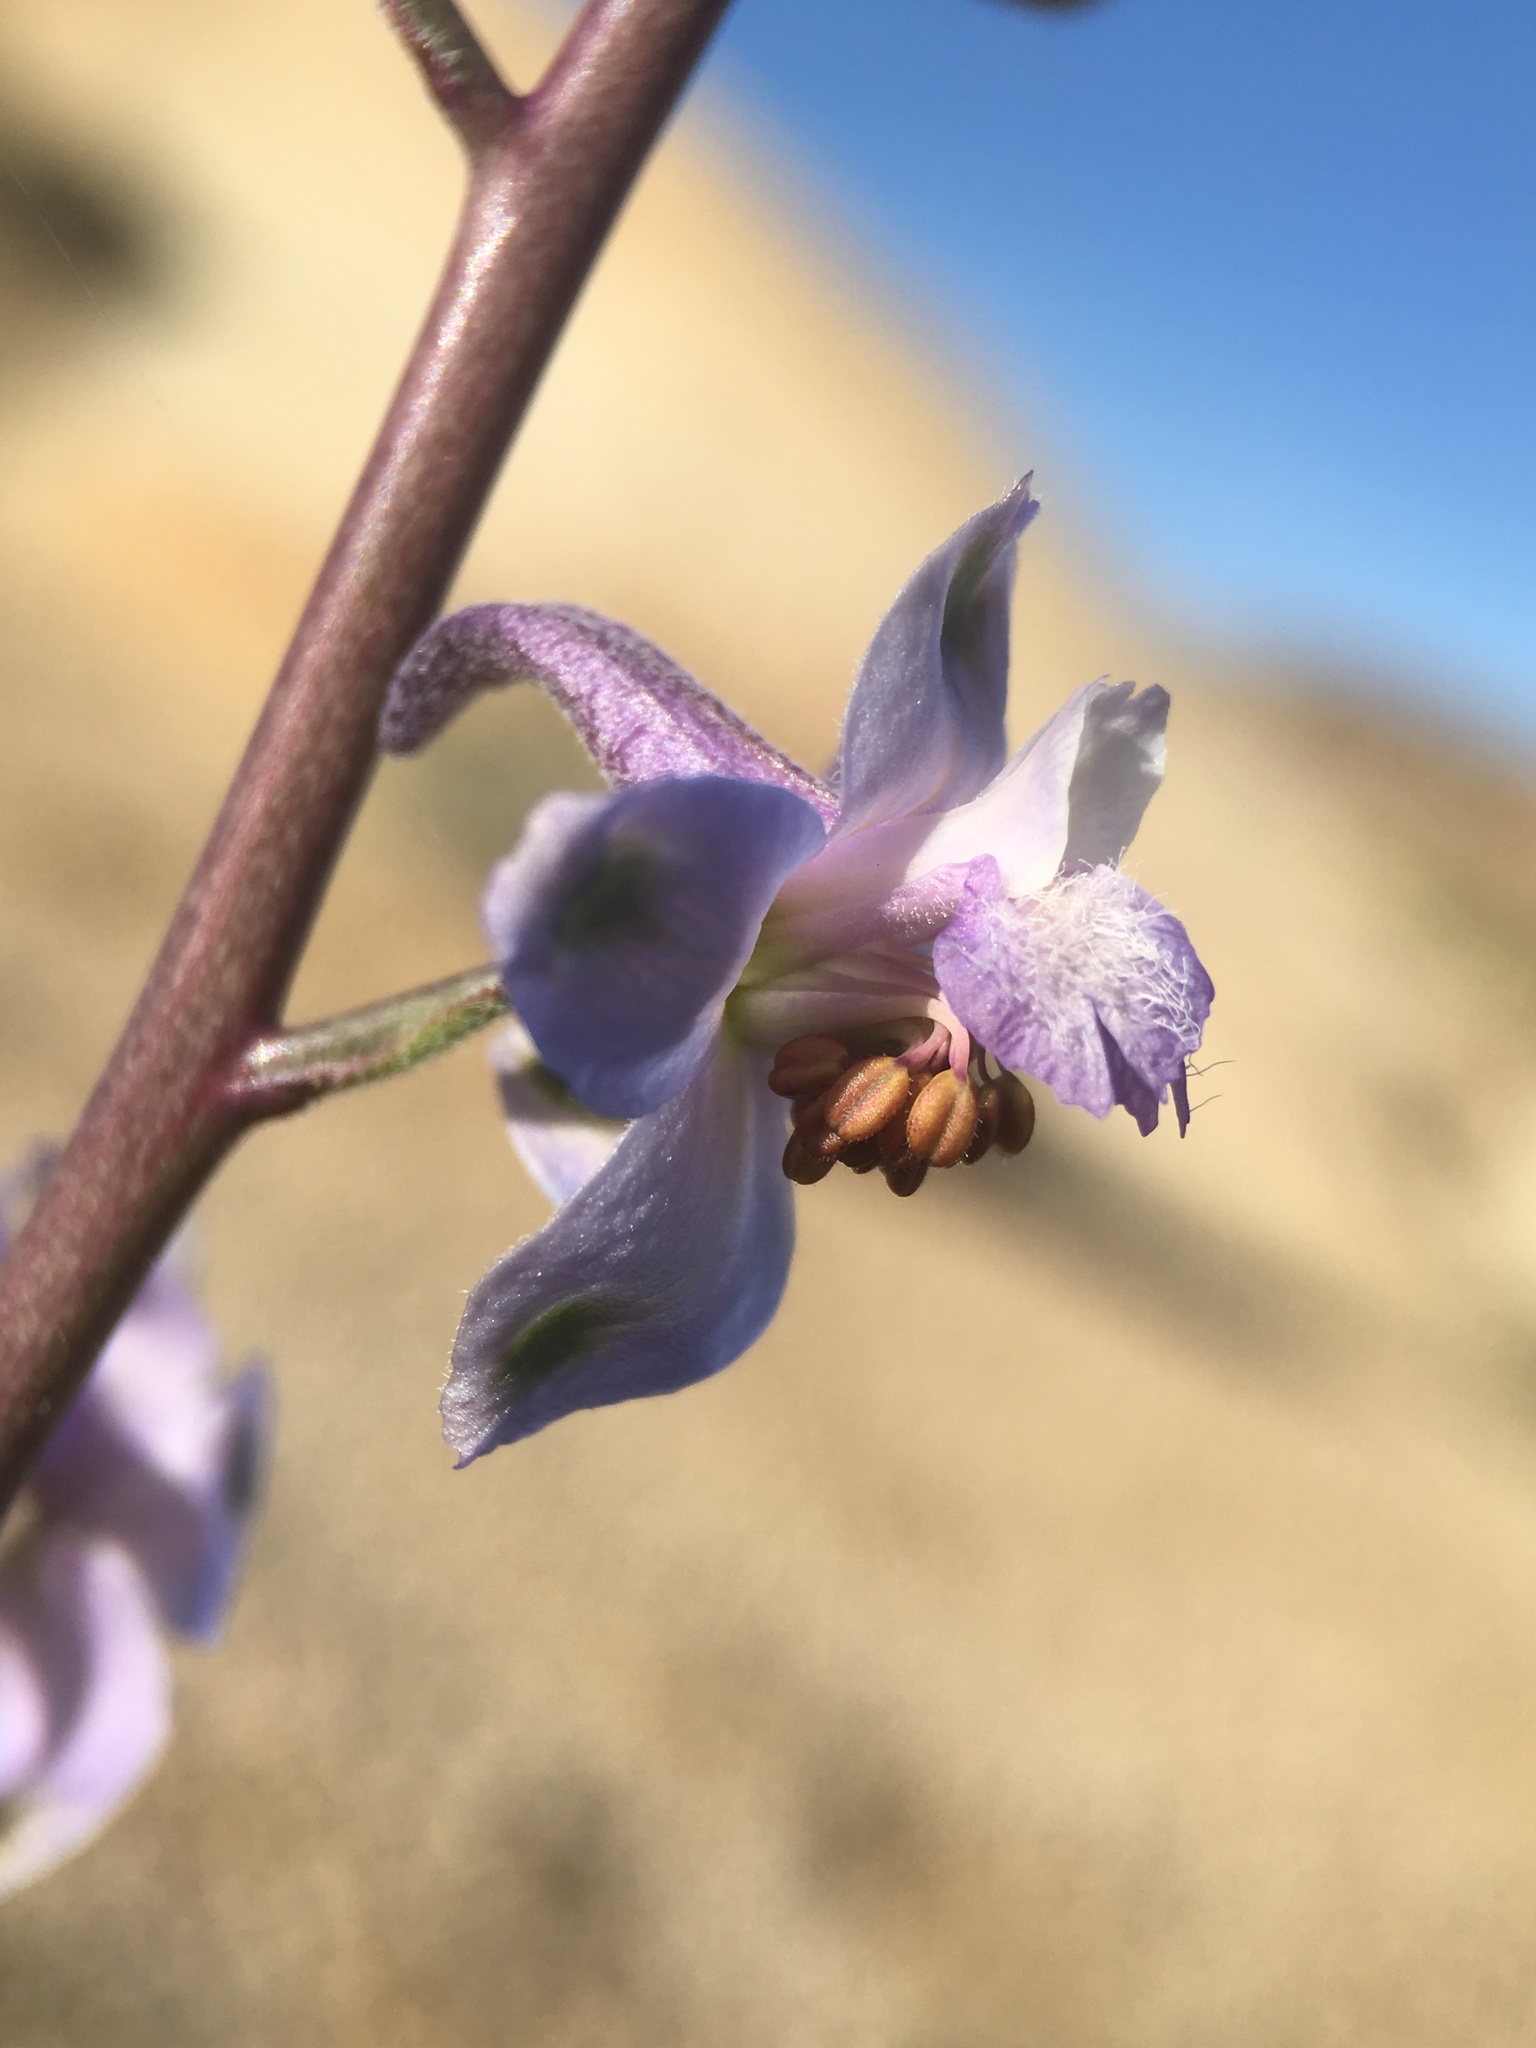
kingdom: Plantae
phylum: Tracheophyta
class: Magnoliopsida
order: Ranunculales
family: Ranunculaceae
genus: Delphinium
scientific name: Delphinium parishii
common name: Apache larkspur
